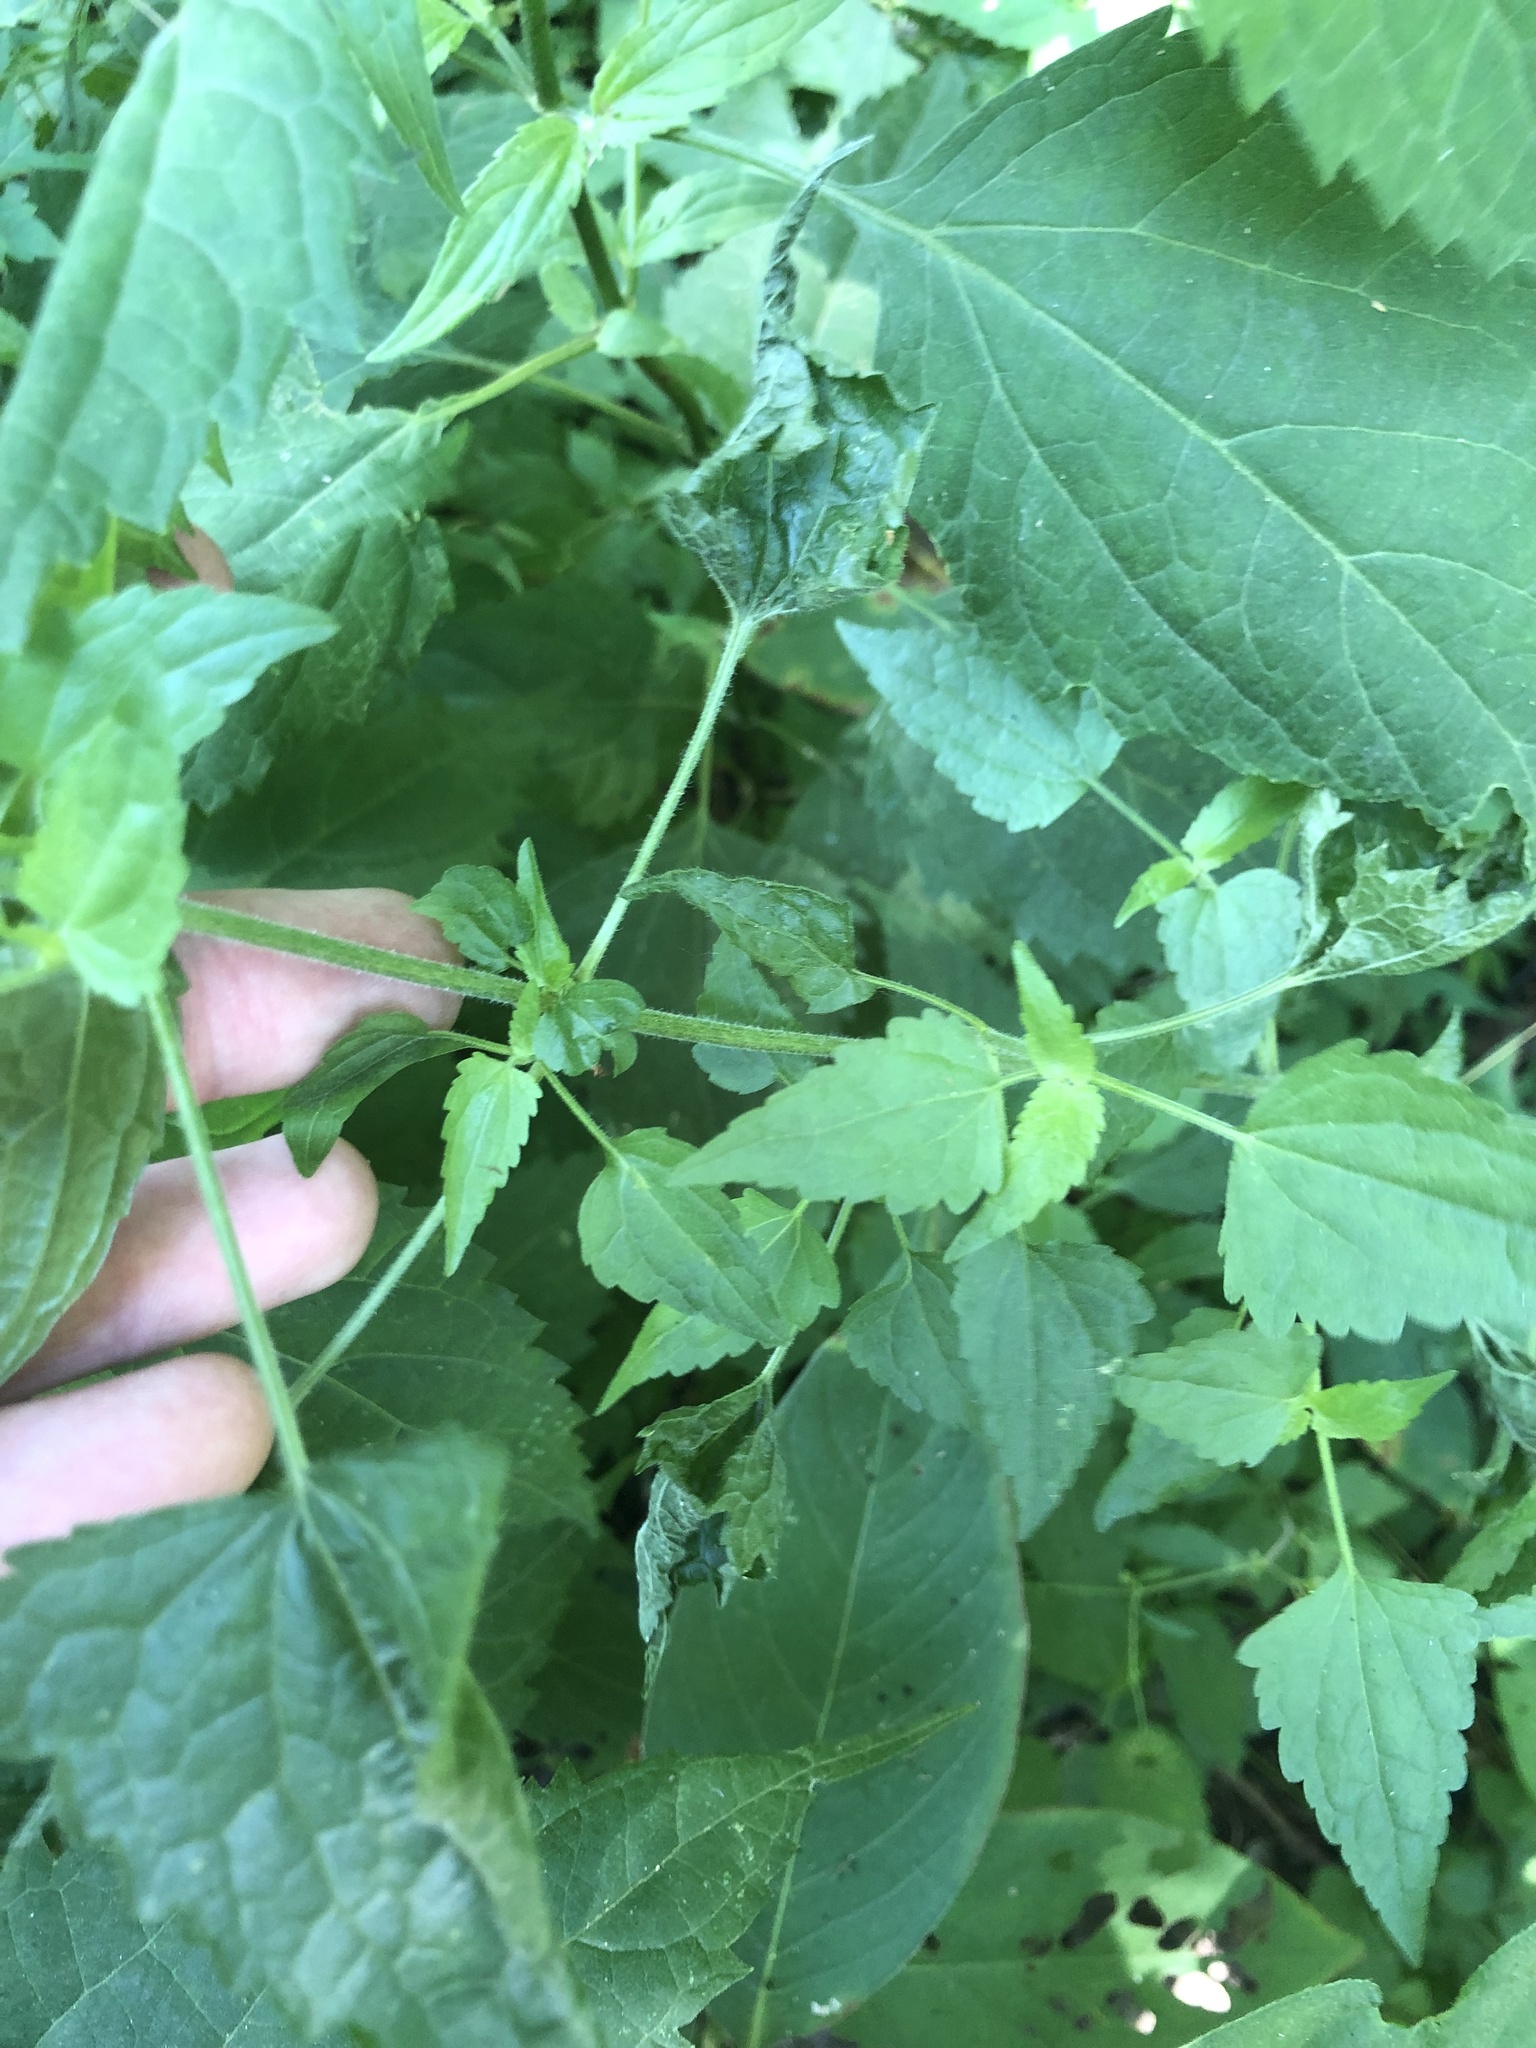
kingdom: Plantae
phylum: Tracheophyta
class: Magnoliopsida
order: Asterales
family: Asteraceae
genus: Fleischmannia
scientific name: Fleischmannia incarnata
